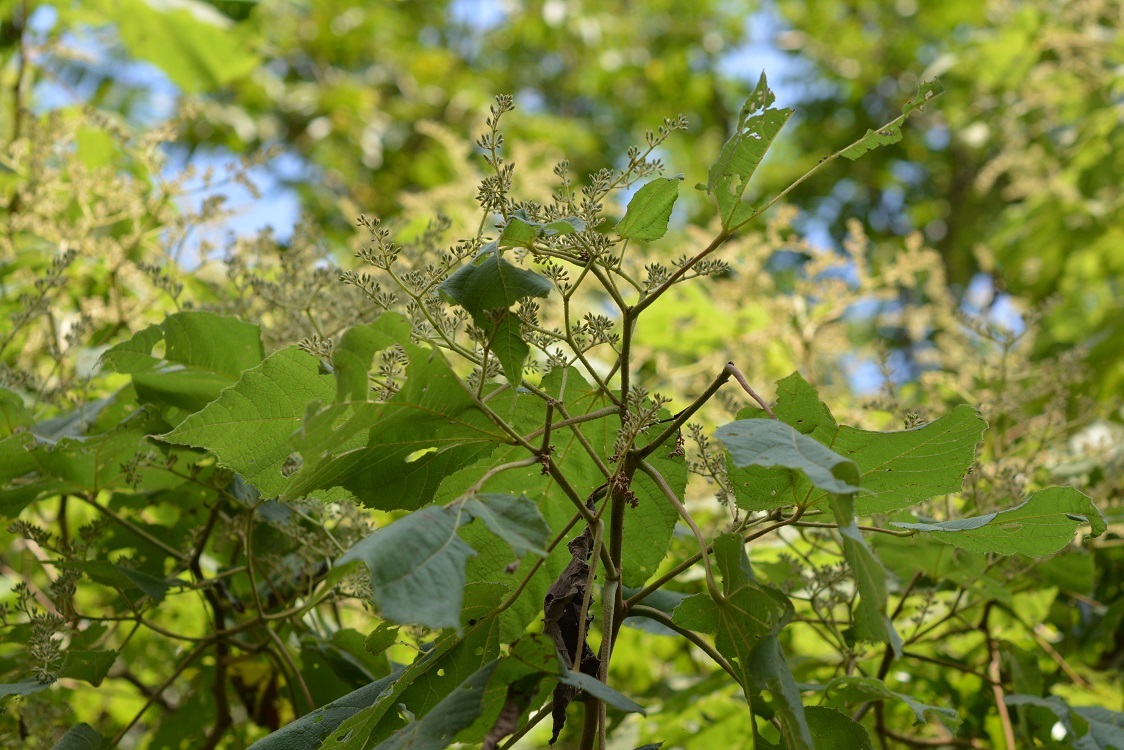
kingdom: Plantae
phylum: Tracheophyta
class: Magnoliopsida
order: Malvales
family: Malvaceae
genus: Heliocarpus
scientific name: Heliocarpus americanus
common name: White moho
